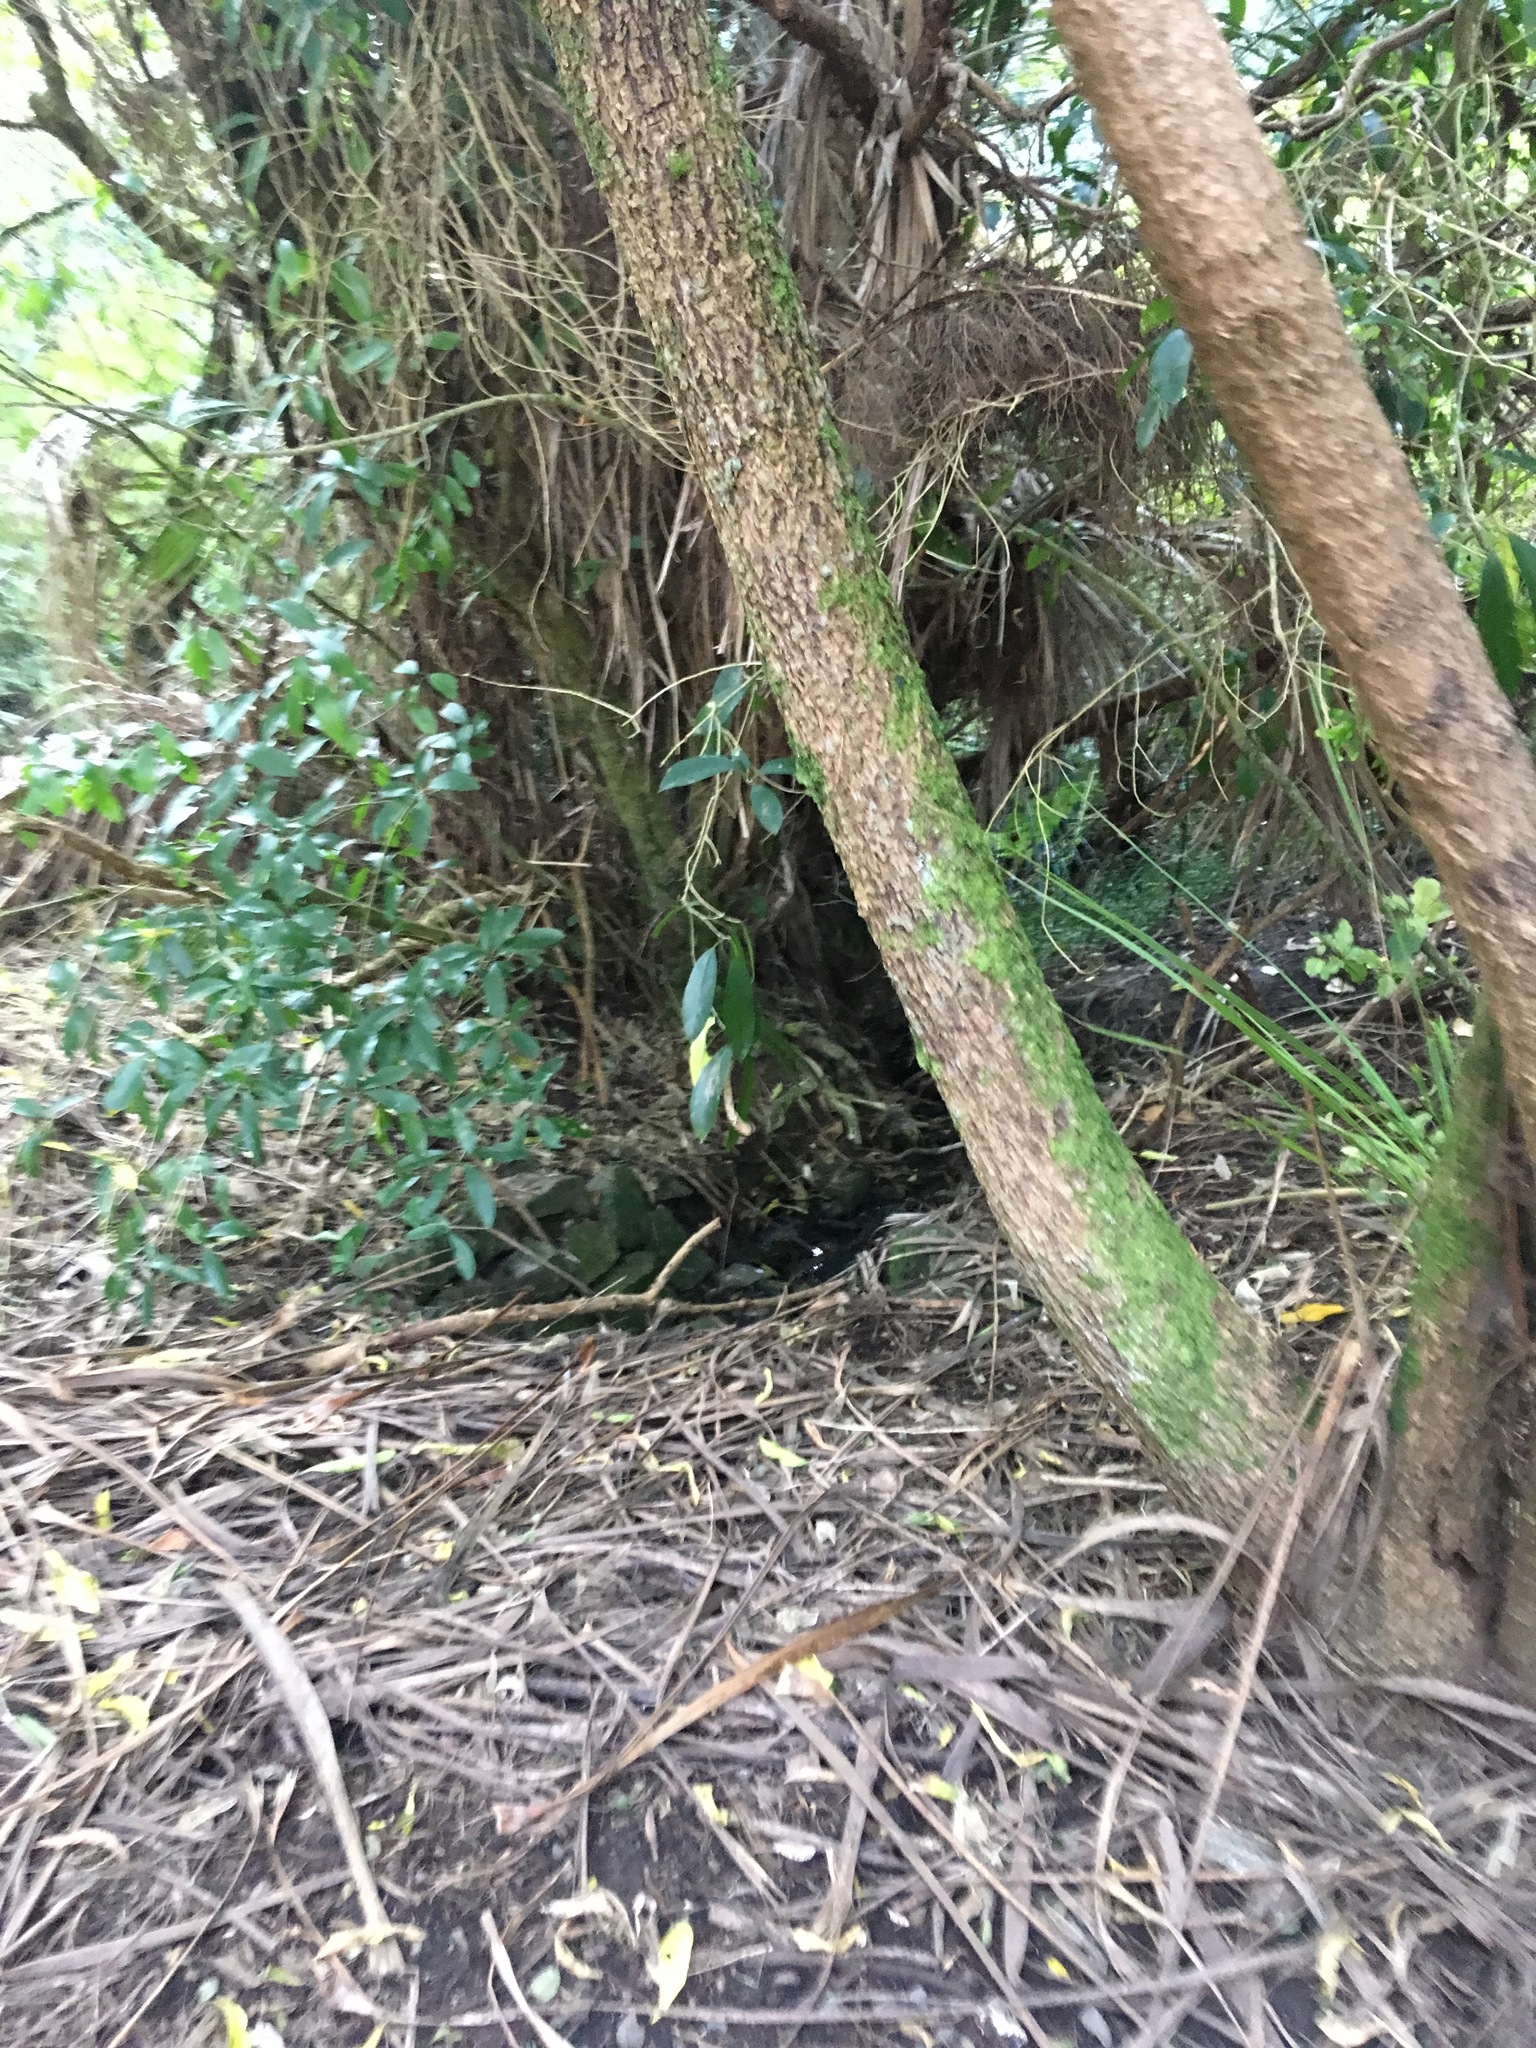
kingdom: Plantae
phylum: Tracheophyta
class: Liliopsida
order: Asparagales
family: Asparagaceae
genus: Cordyline
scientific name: Cordyline australis
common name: Cabbage-palm
